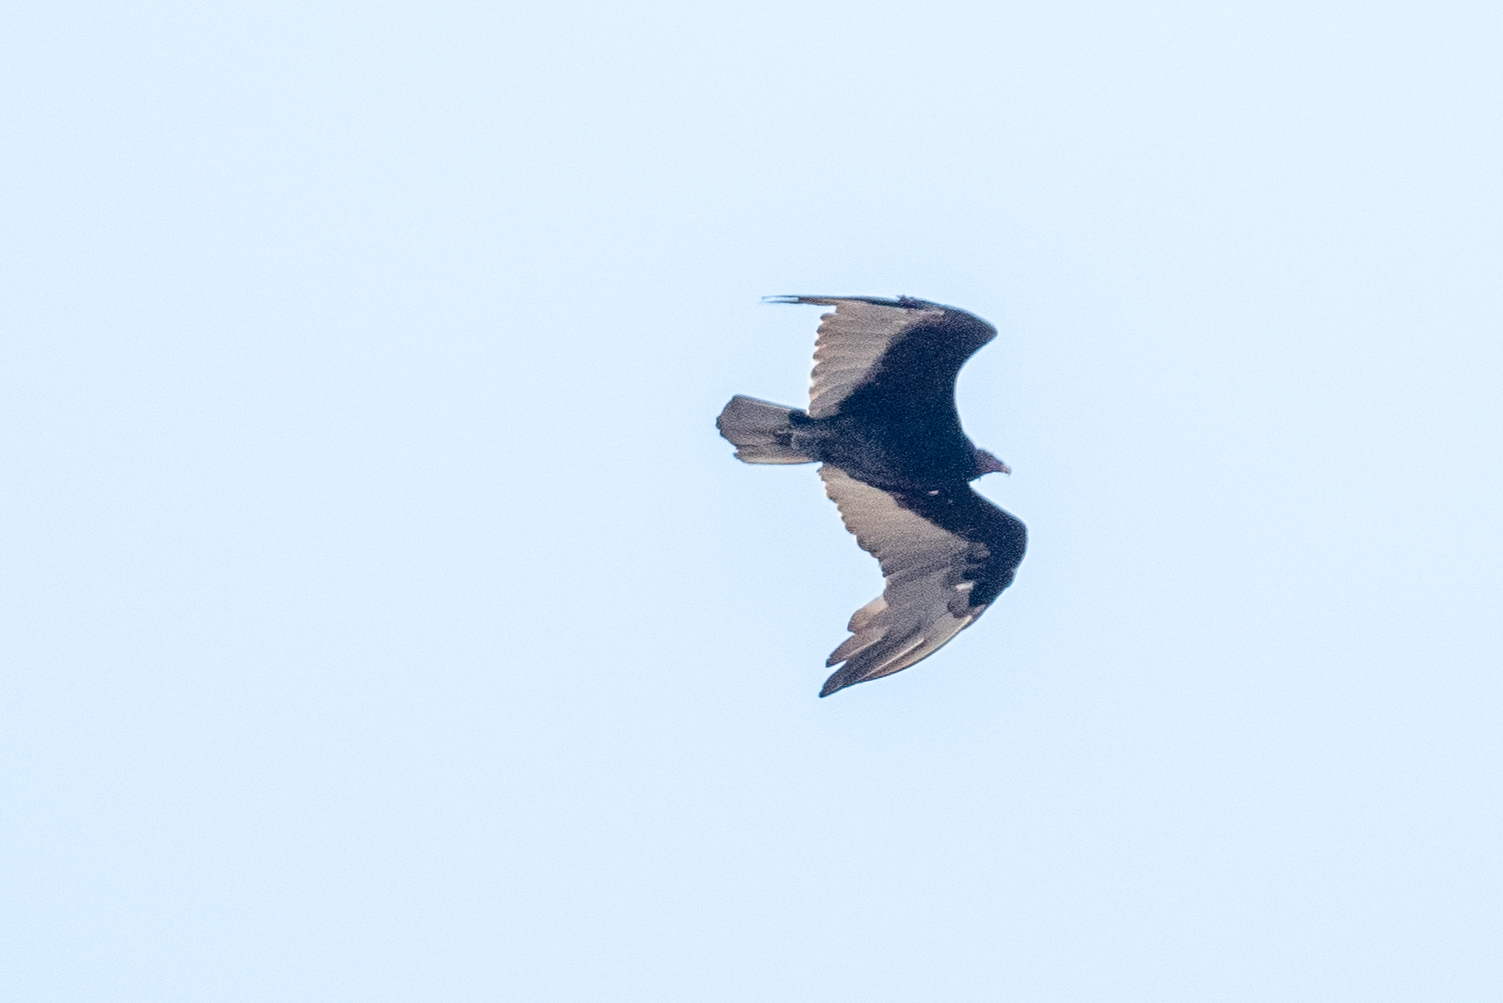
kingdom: Animalia
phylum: Chordata
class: Aves
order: Accipitriformes
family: Cathartidae
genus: Cathartes
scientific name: Cathartes aura
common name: Turkey vulture
